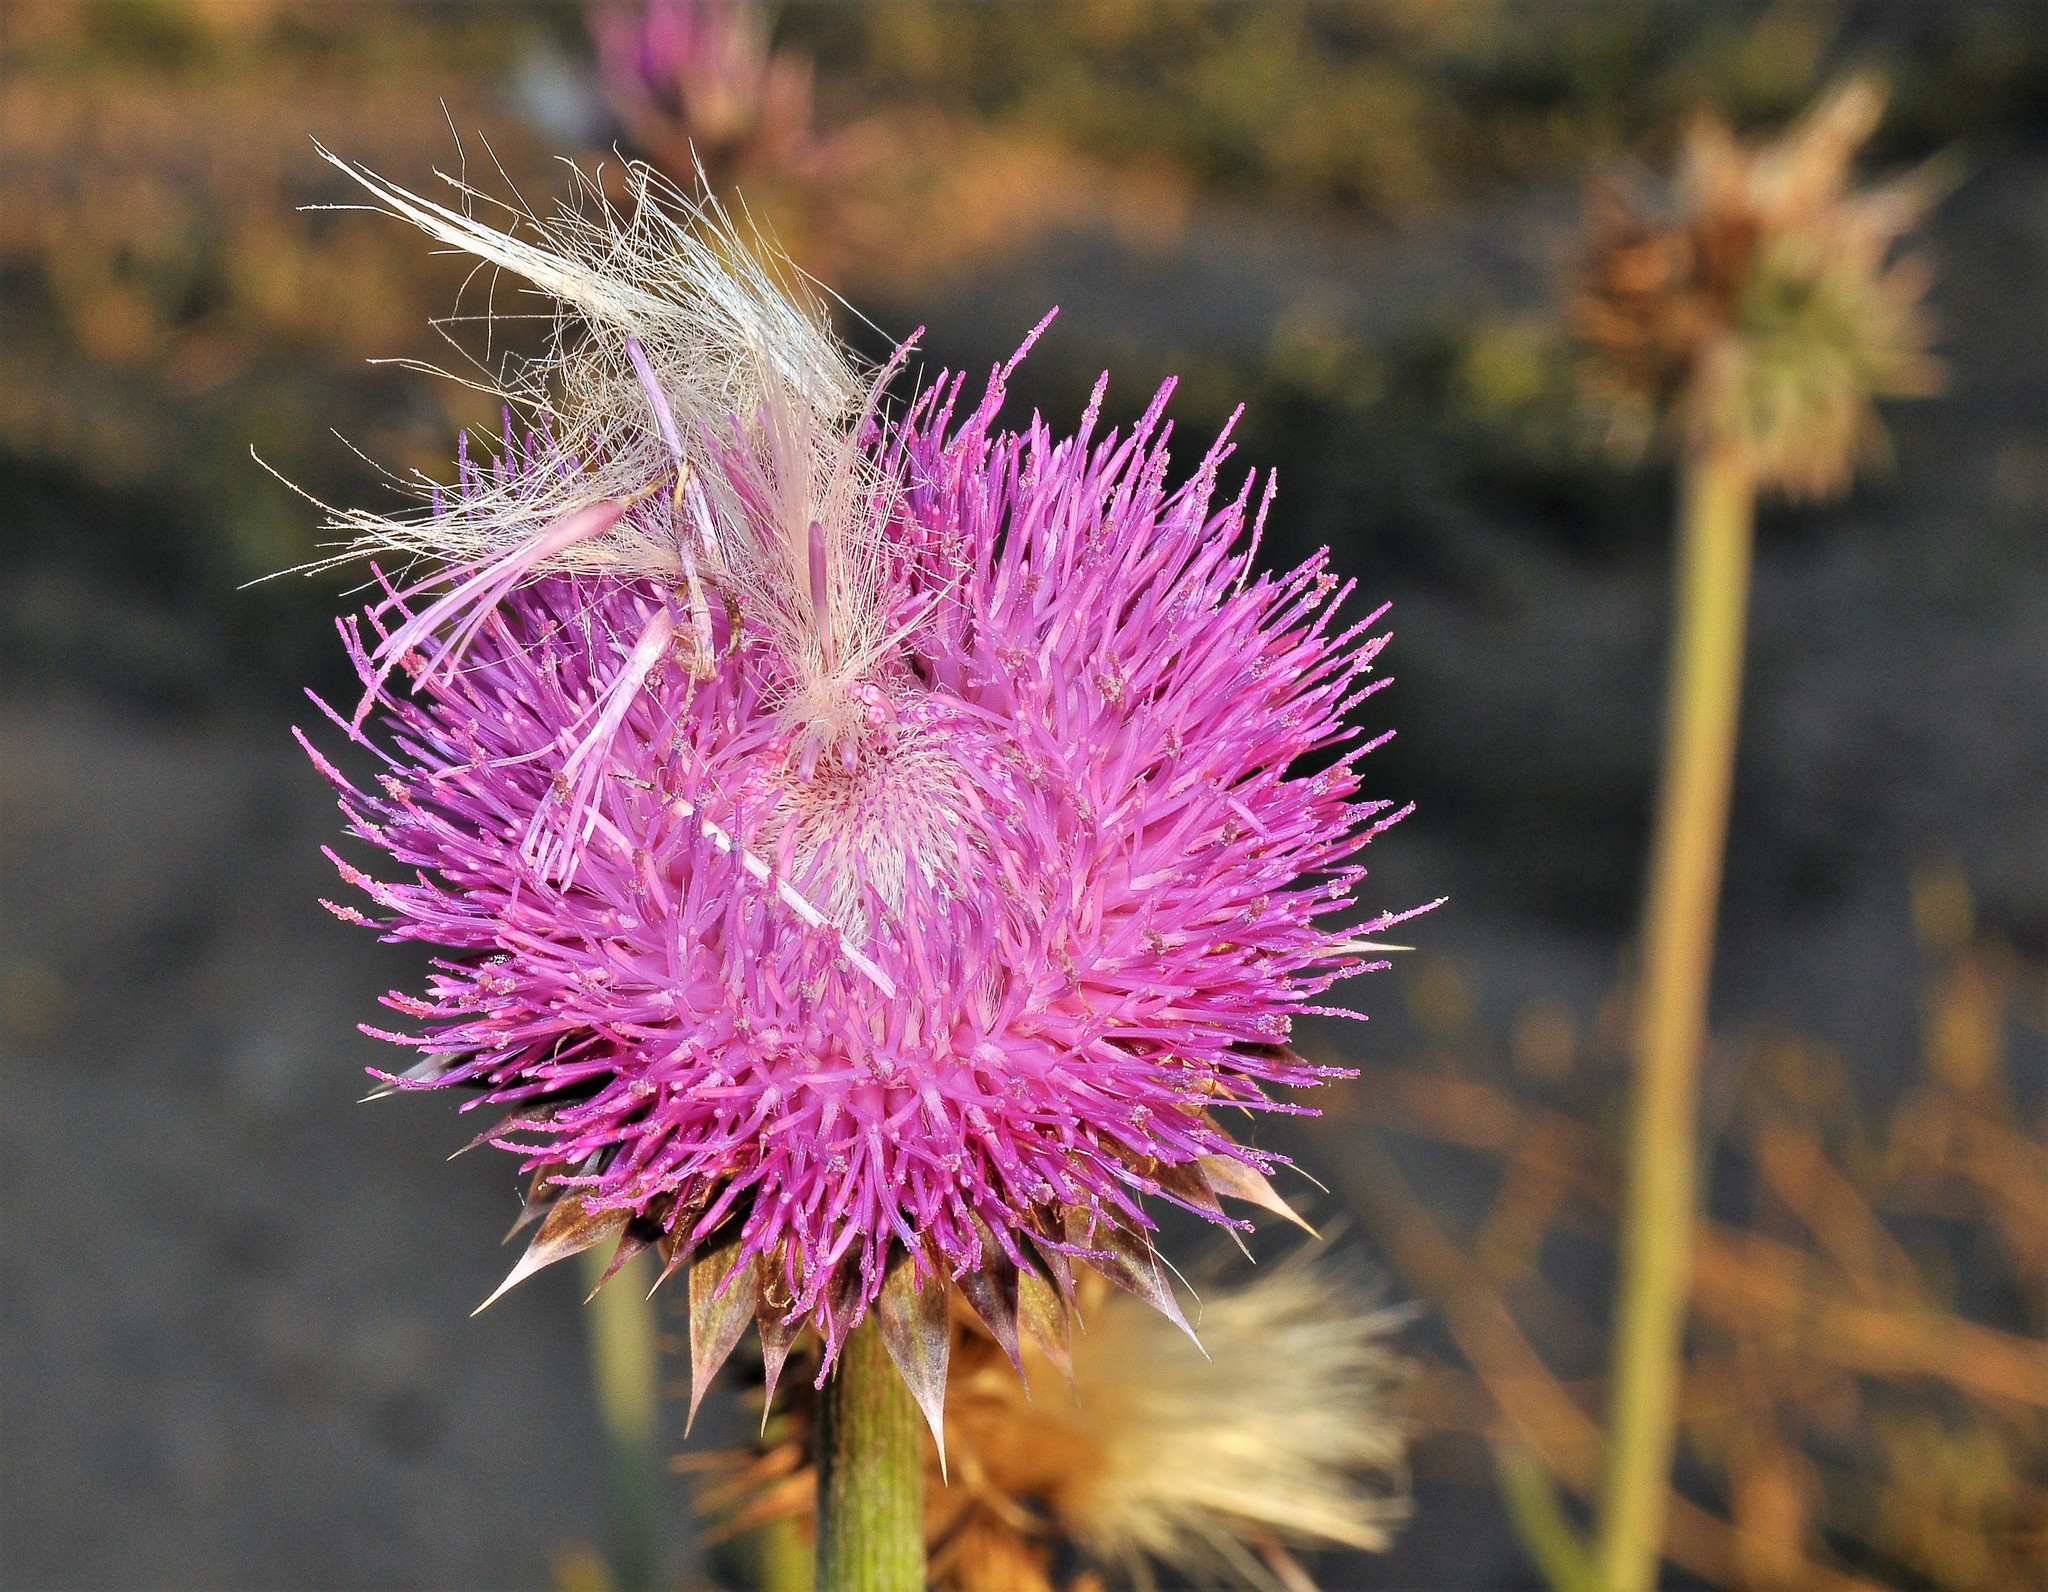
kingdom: Plantae
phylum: Tracheophyta
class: Magnoliopsida
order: Asterales
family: Asteraceae
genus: Carduus
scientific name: Carduus nutans
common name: Musk thistle
